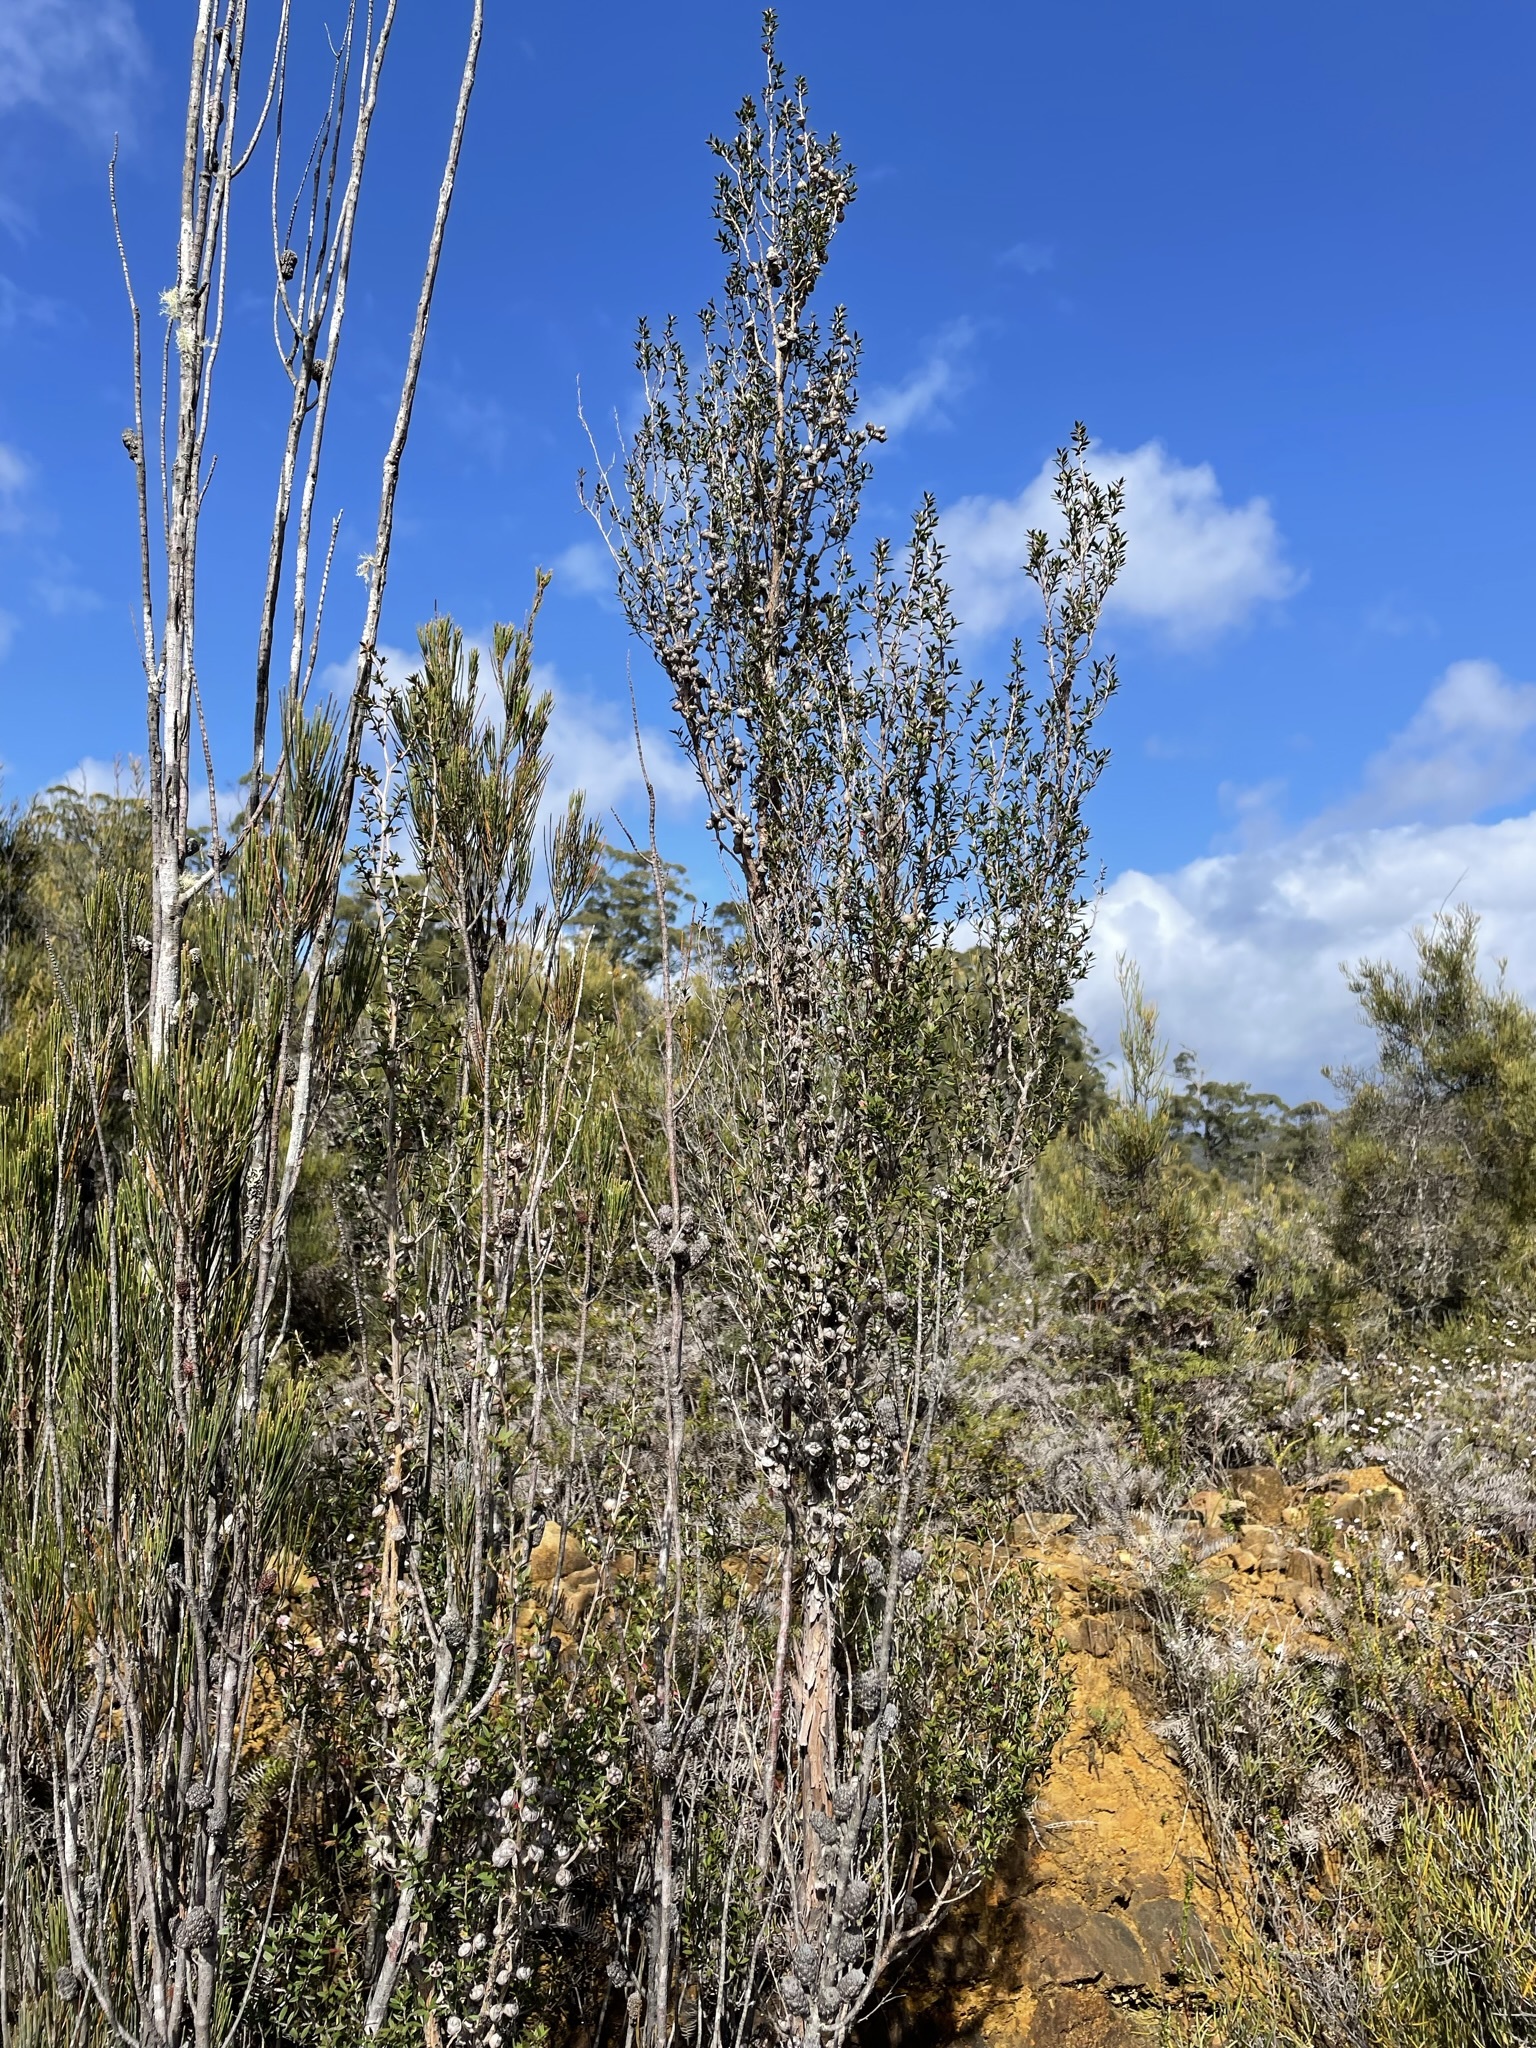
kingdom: Plantae
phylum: Tracheophyta
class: Magnoliopsida
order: Myrtales
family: Myrtaceae
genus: Leptospermum
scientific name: Leptospermum scoparium
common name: Broom tea-tree
